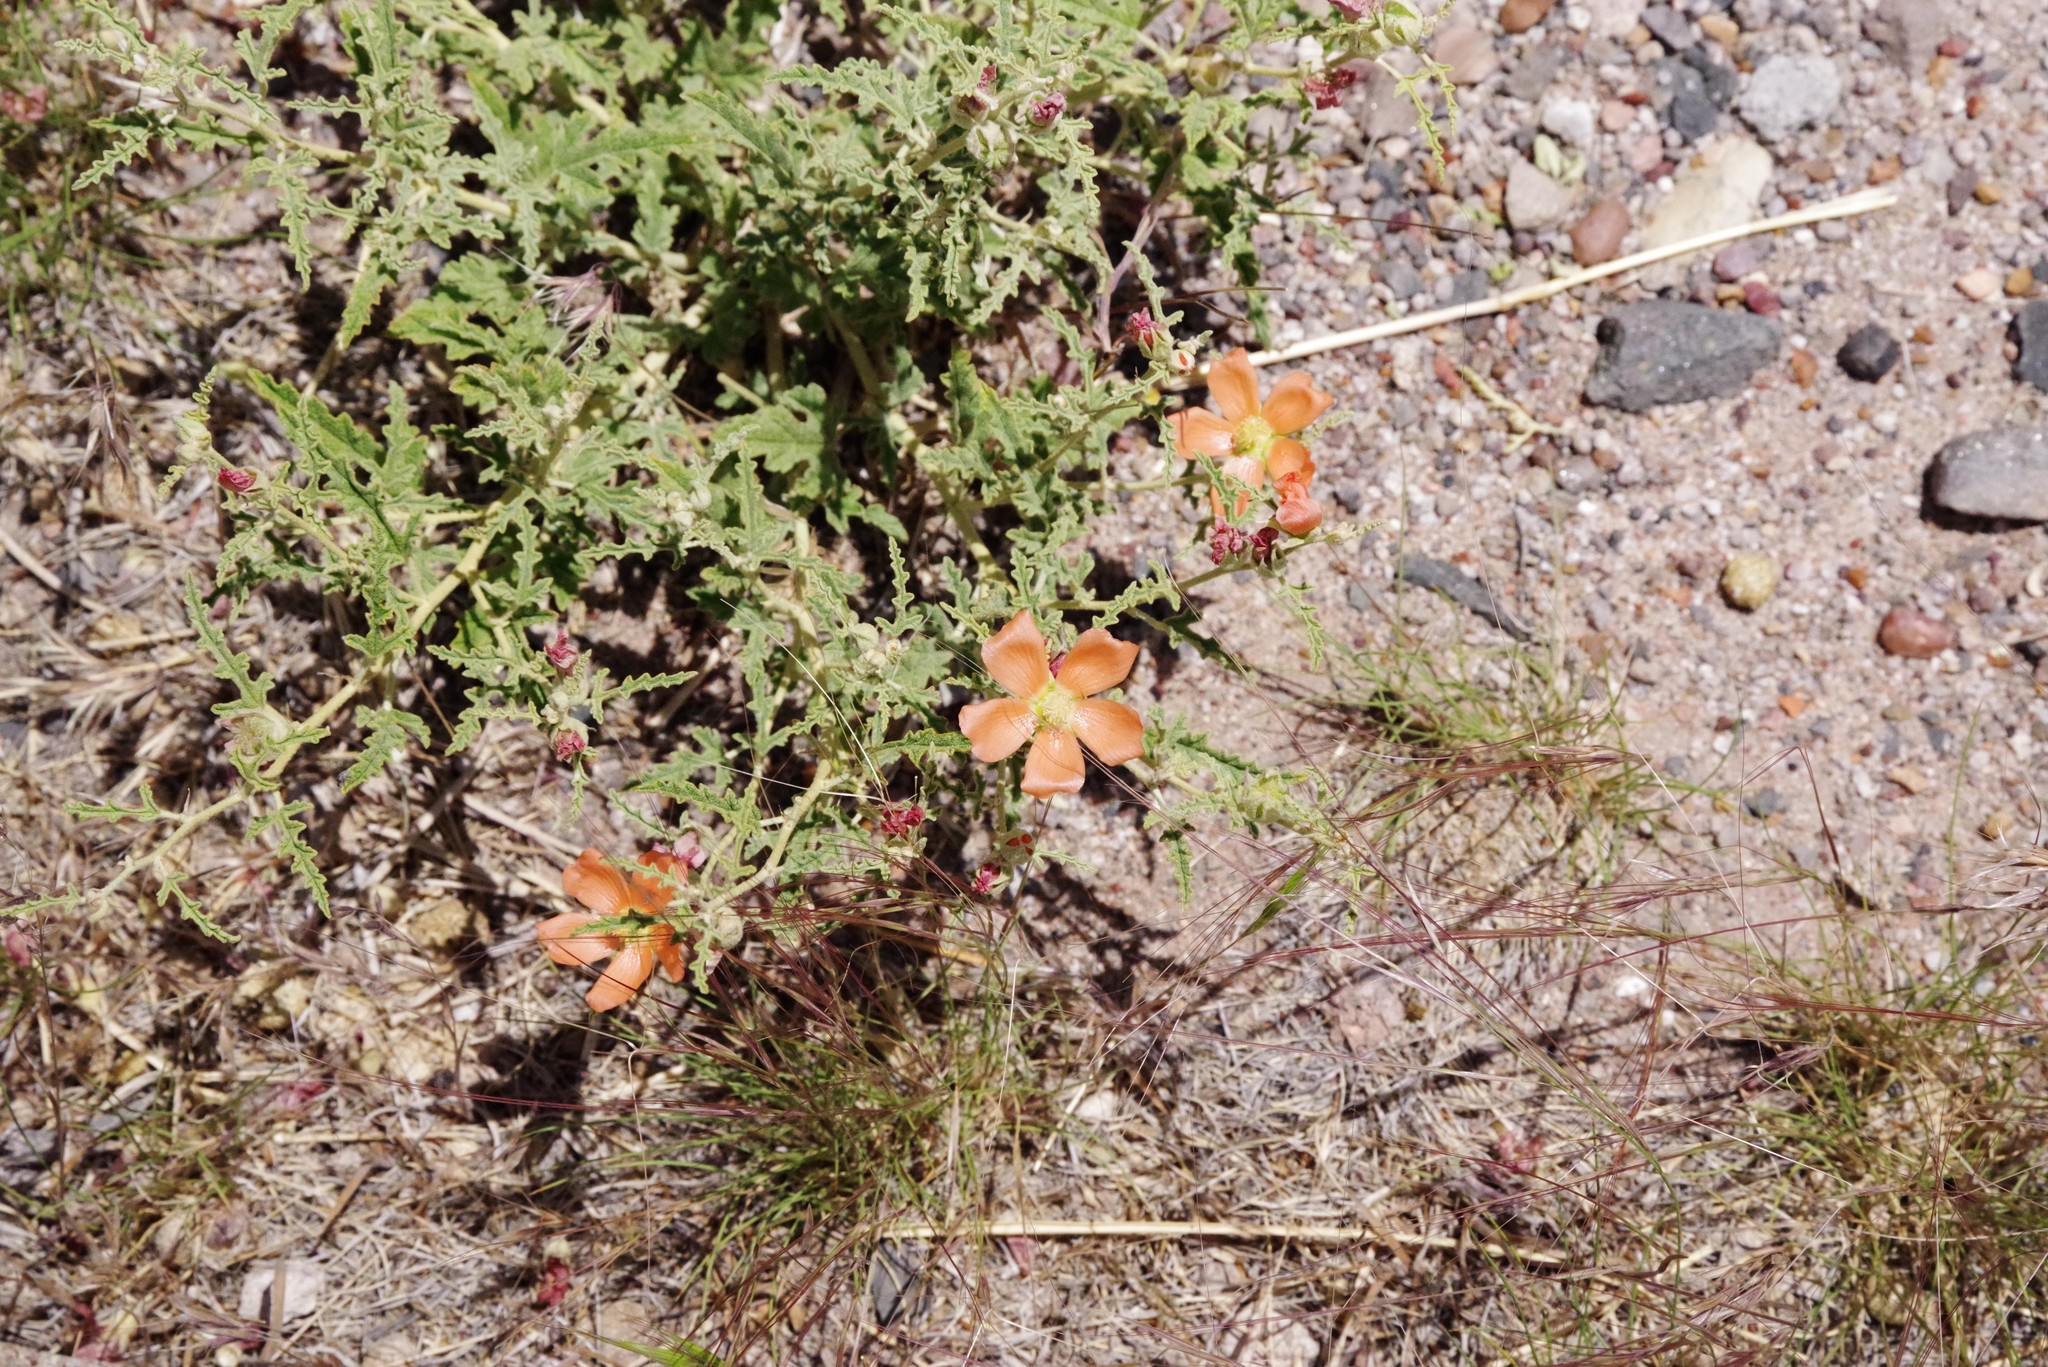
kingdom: Plantae
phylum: Tracheophyta
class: Magnoliopsida
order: Malvales
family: Malvaceae
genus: Sphaeralcea
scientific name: Sphaeralcea incana
